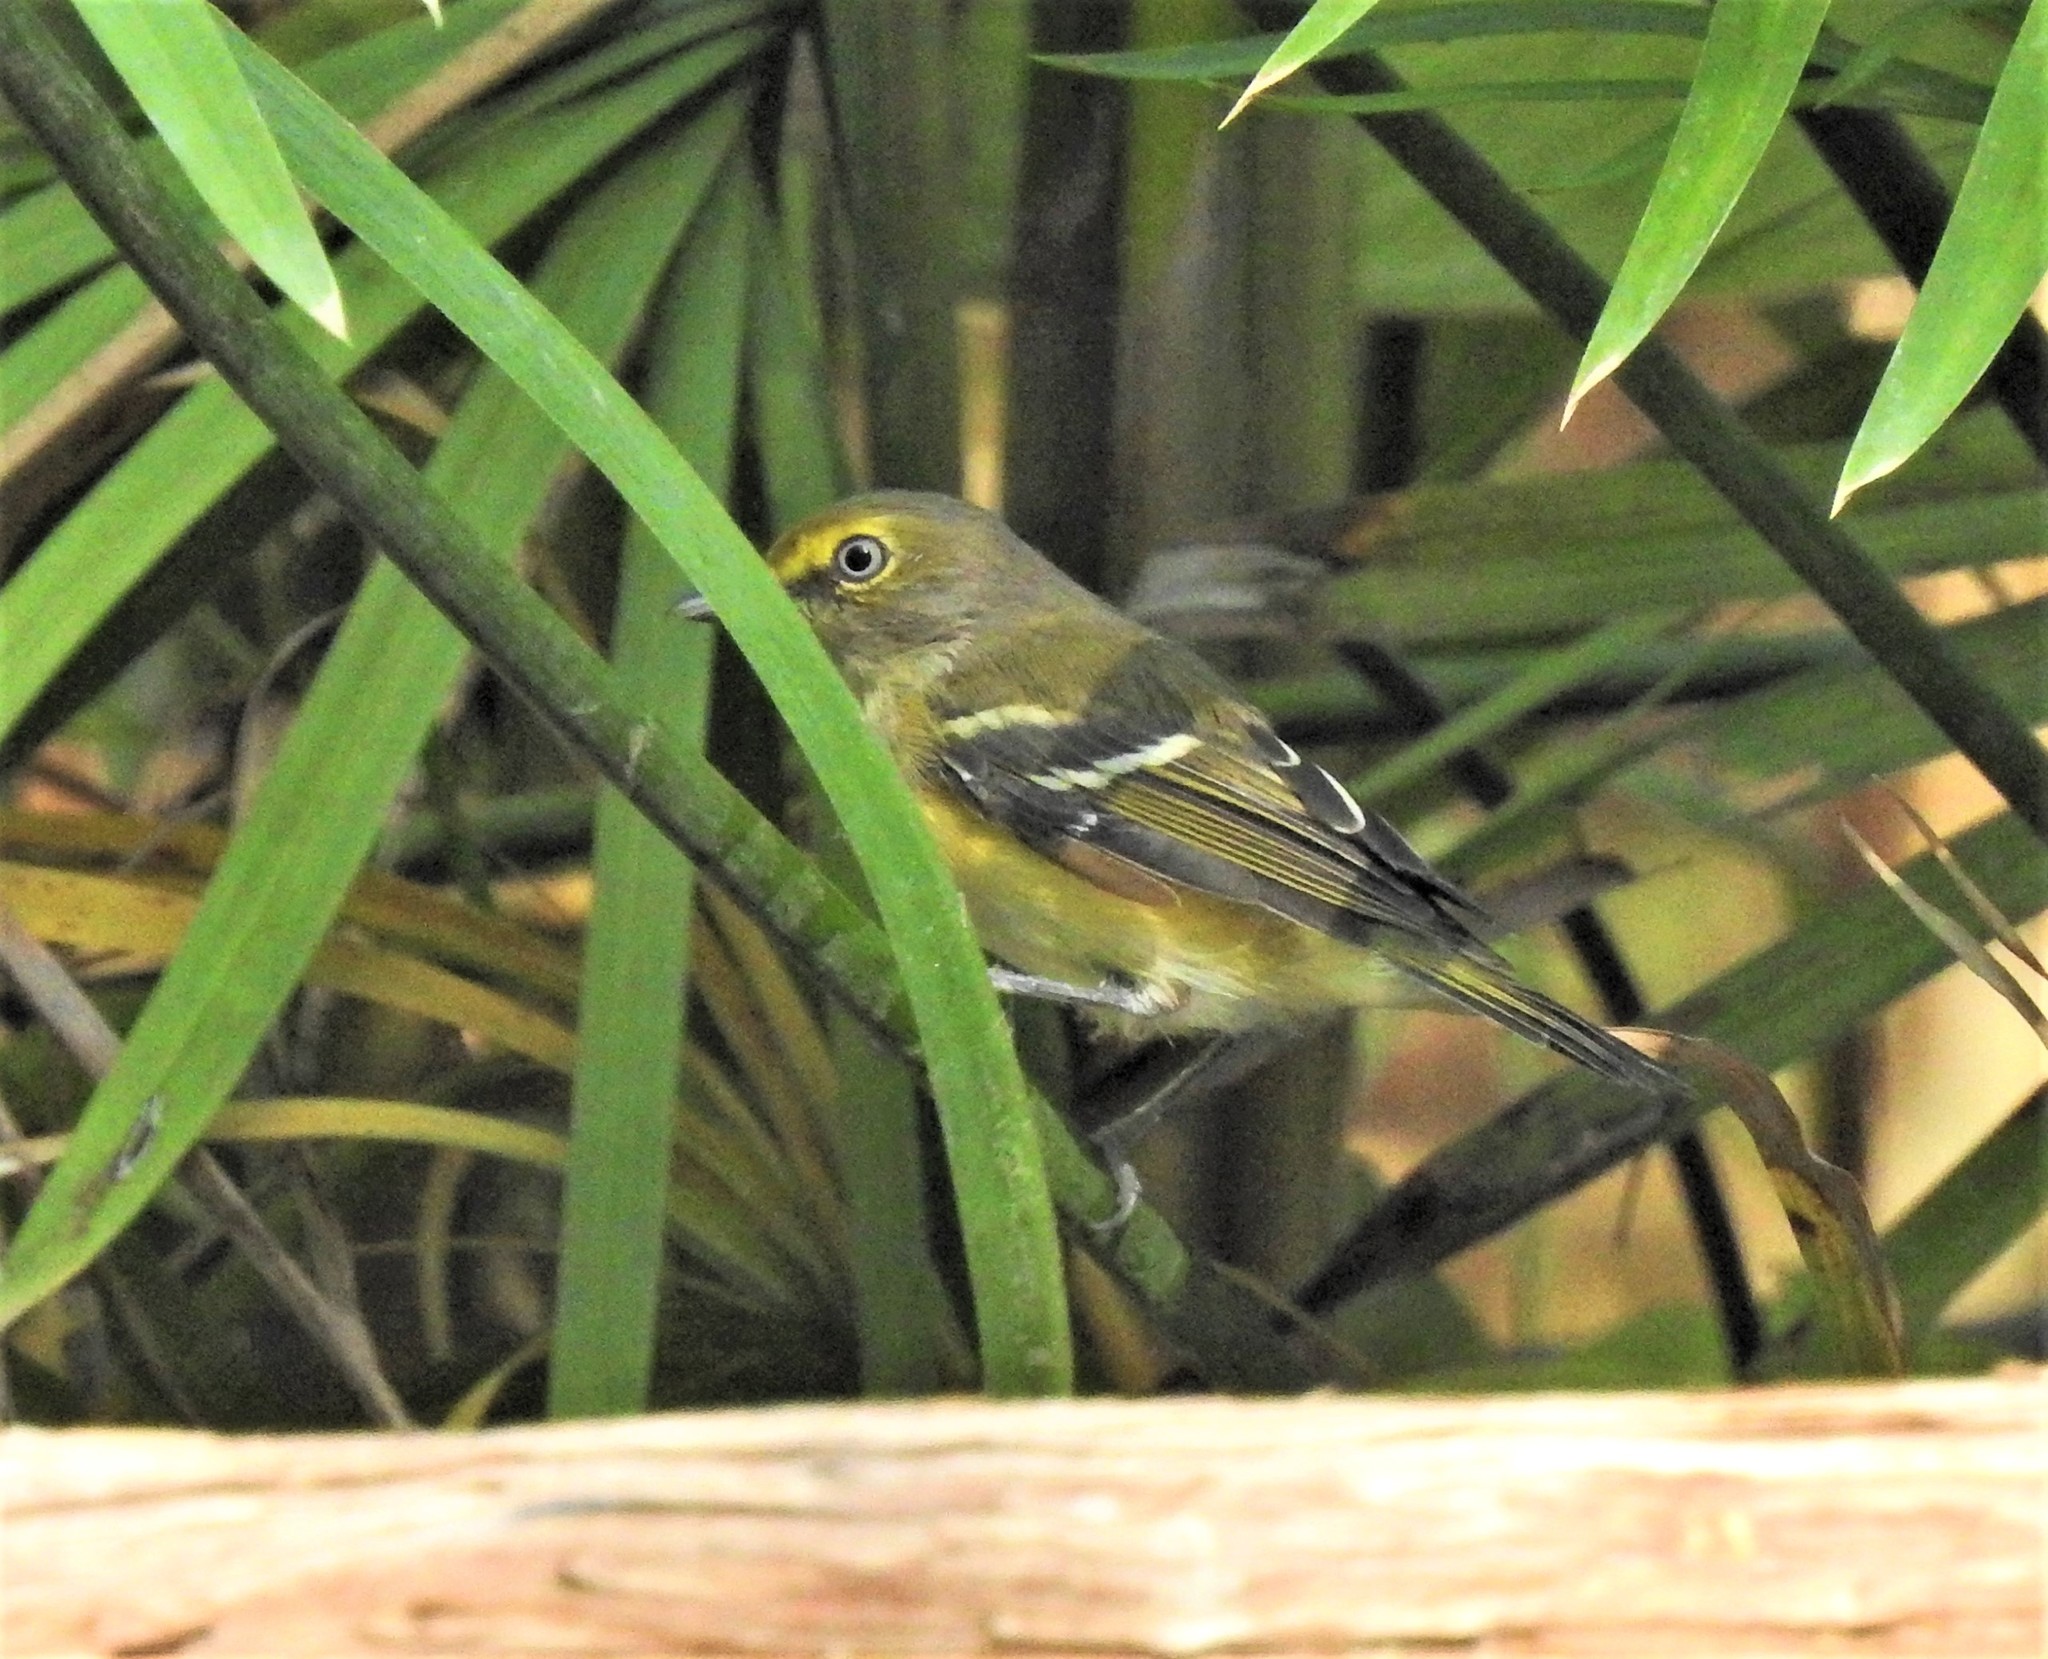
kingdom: Animalia
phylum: Chordata
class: Aves
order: Passeriformes
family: Vireonidae
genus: Vireo
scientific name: Vireo griseus
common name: White-eyed vireo
